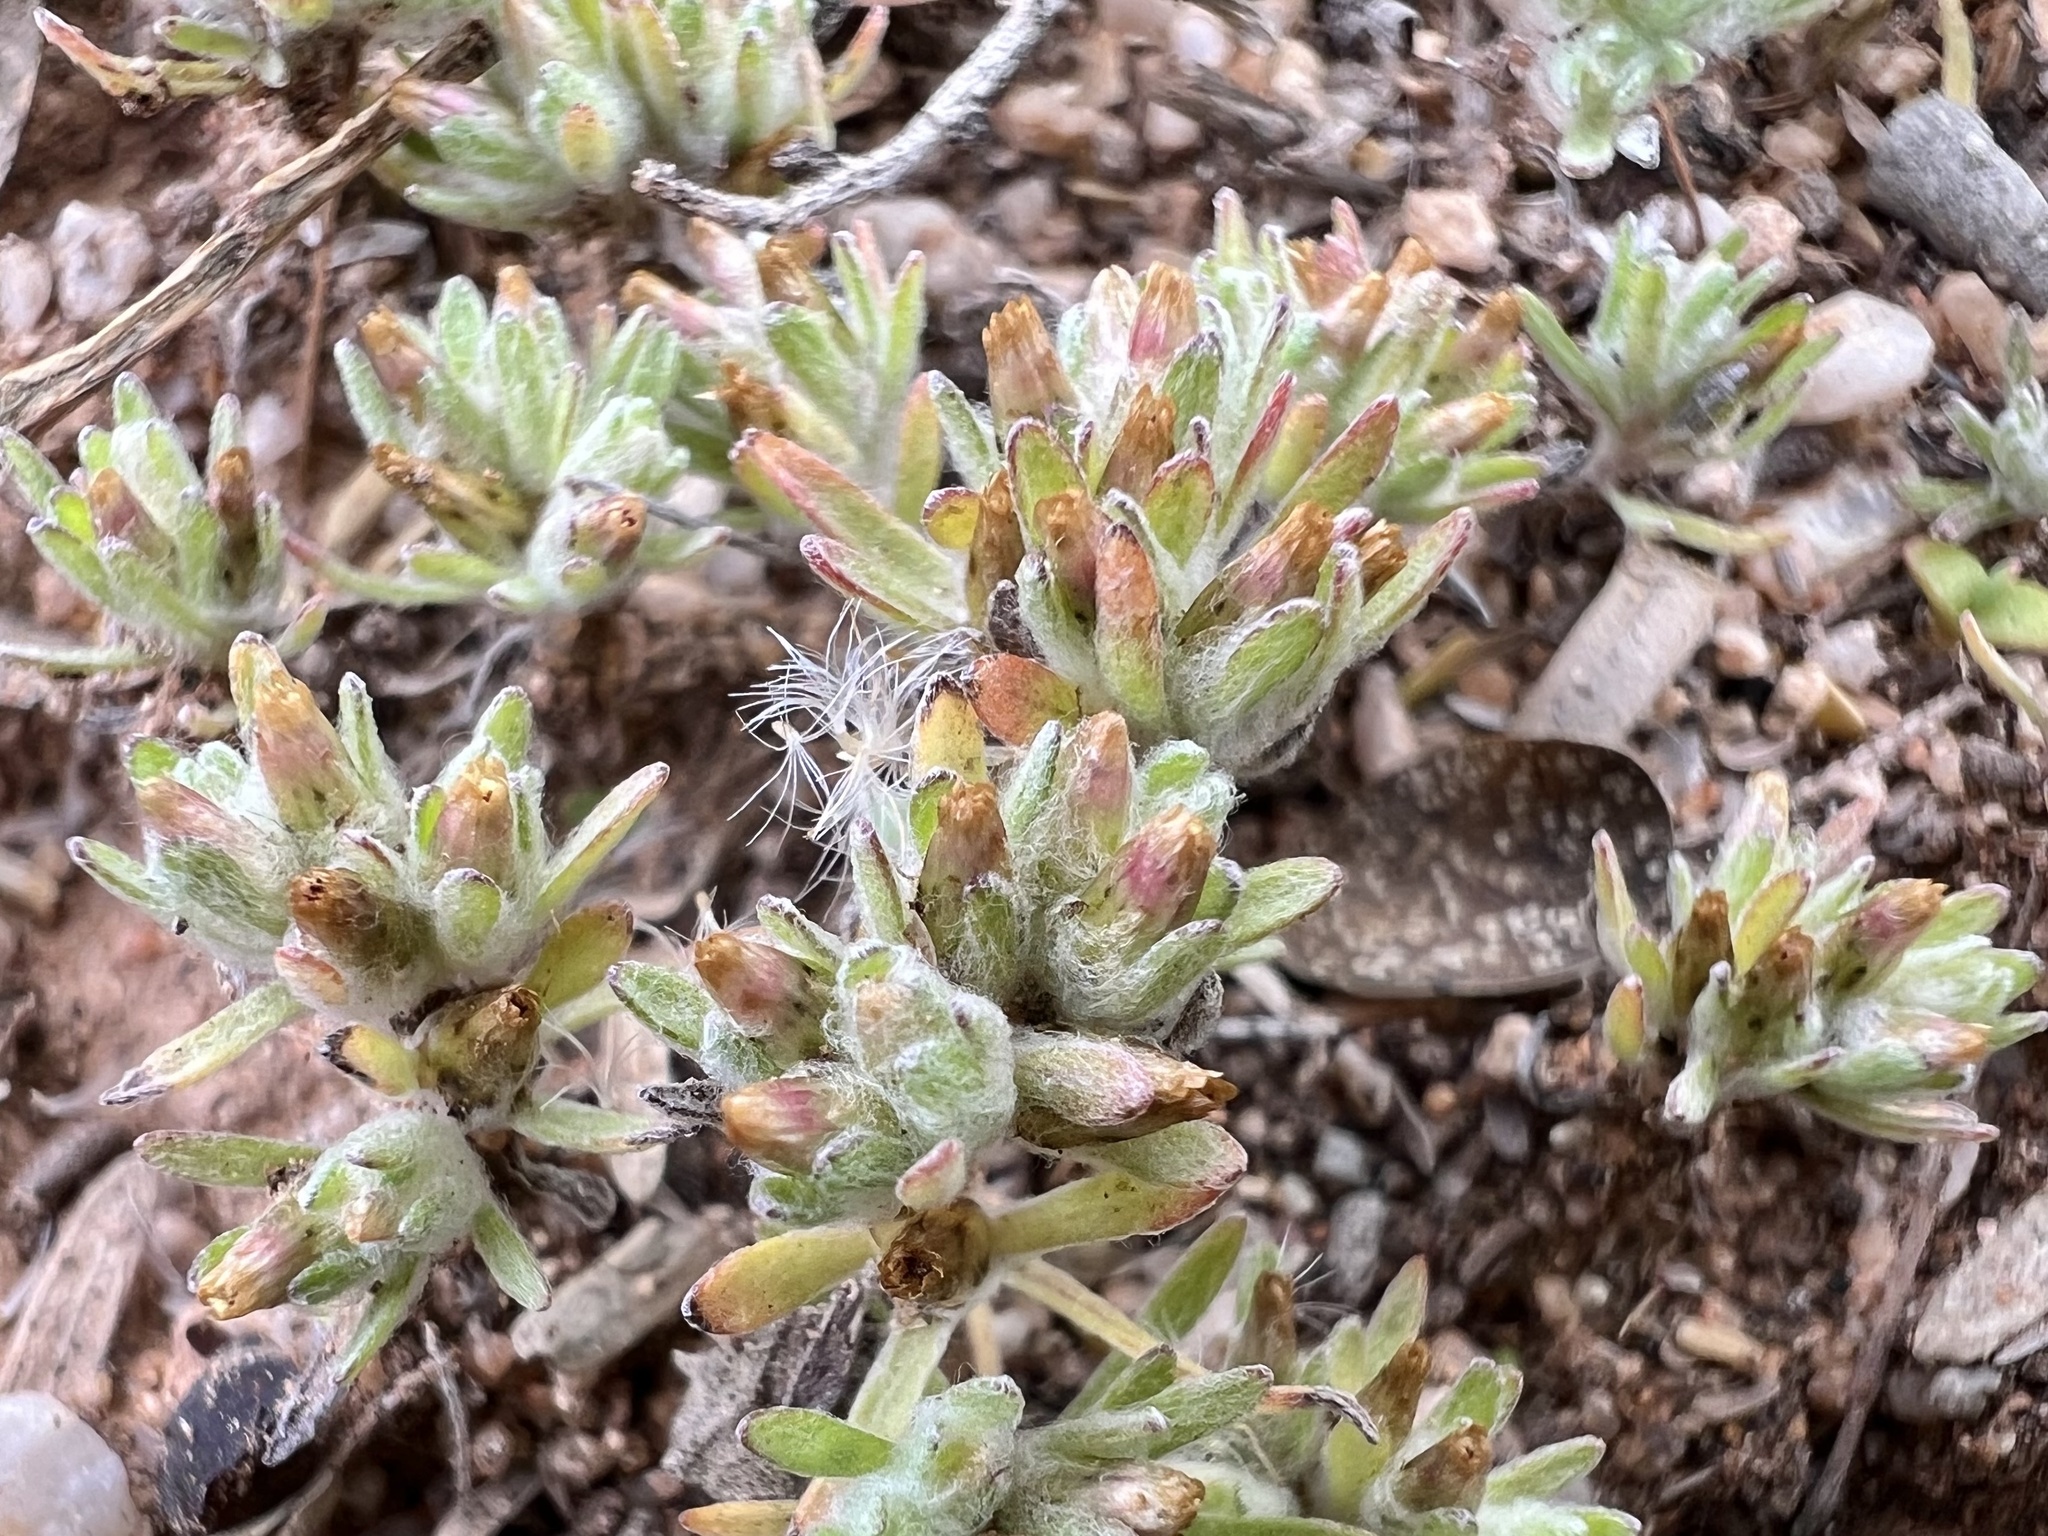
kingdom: Plantae
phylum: Tracheophyta
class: Magnoliopsida
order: Asterales
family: Asteraceae
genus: Lasiopogon
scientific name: Lasiopogon glomerulatus
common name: Green cat thorn
